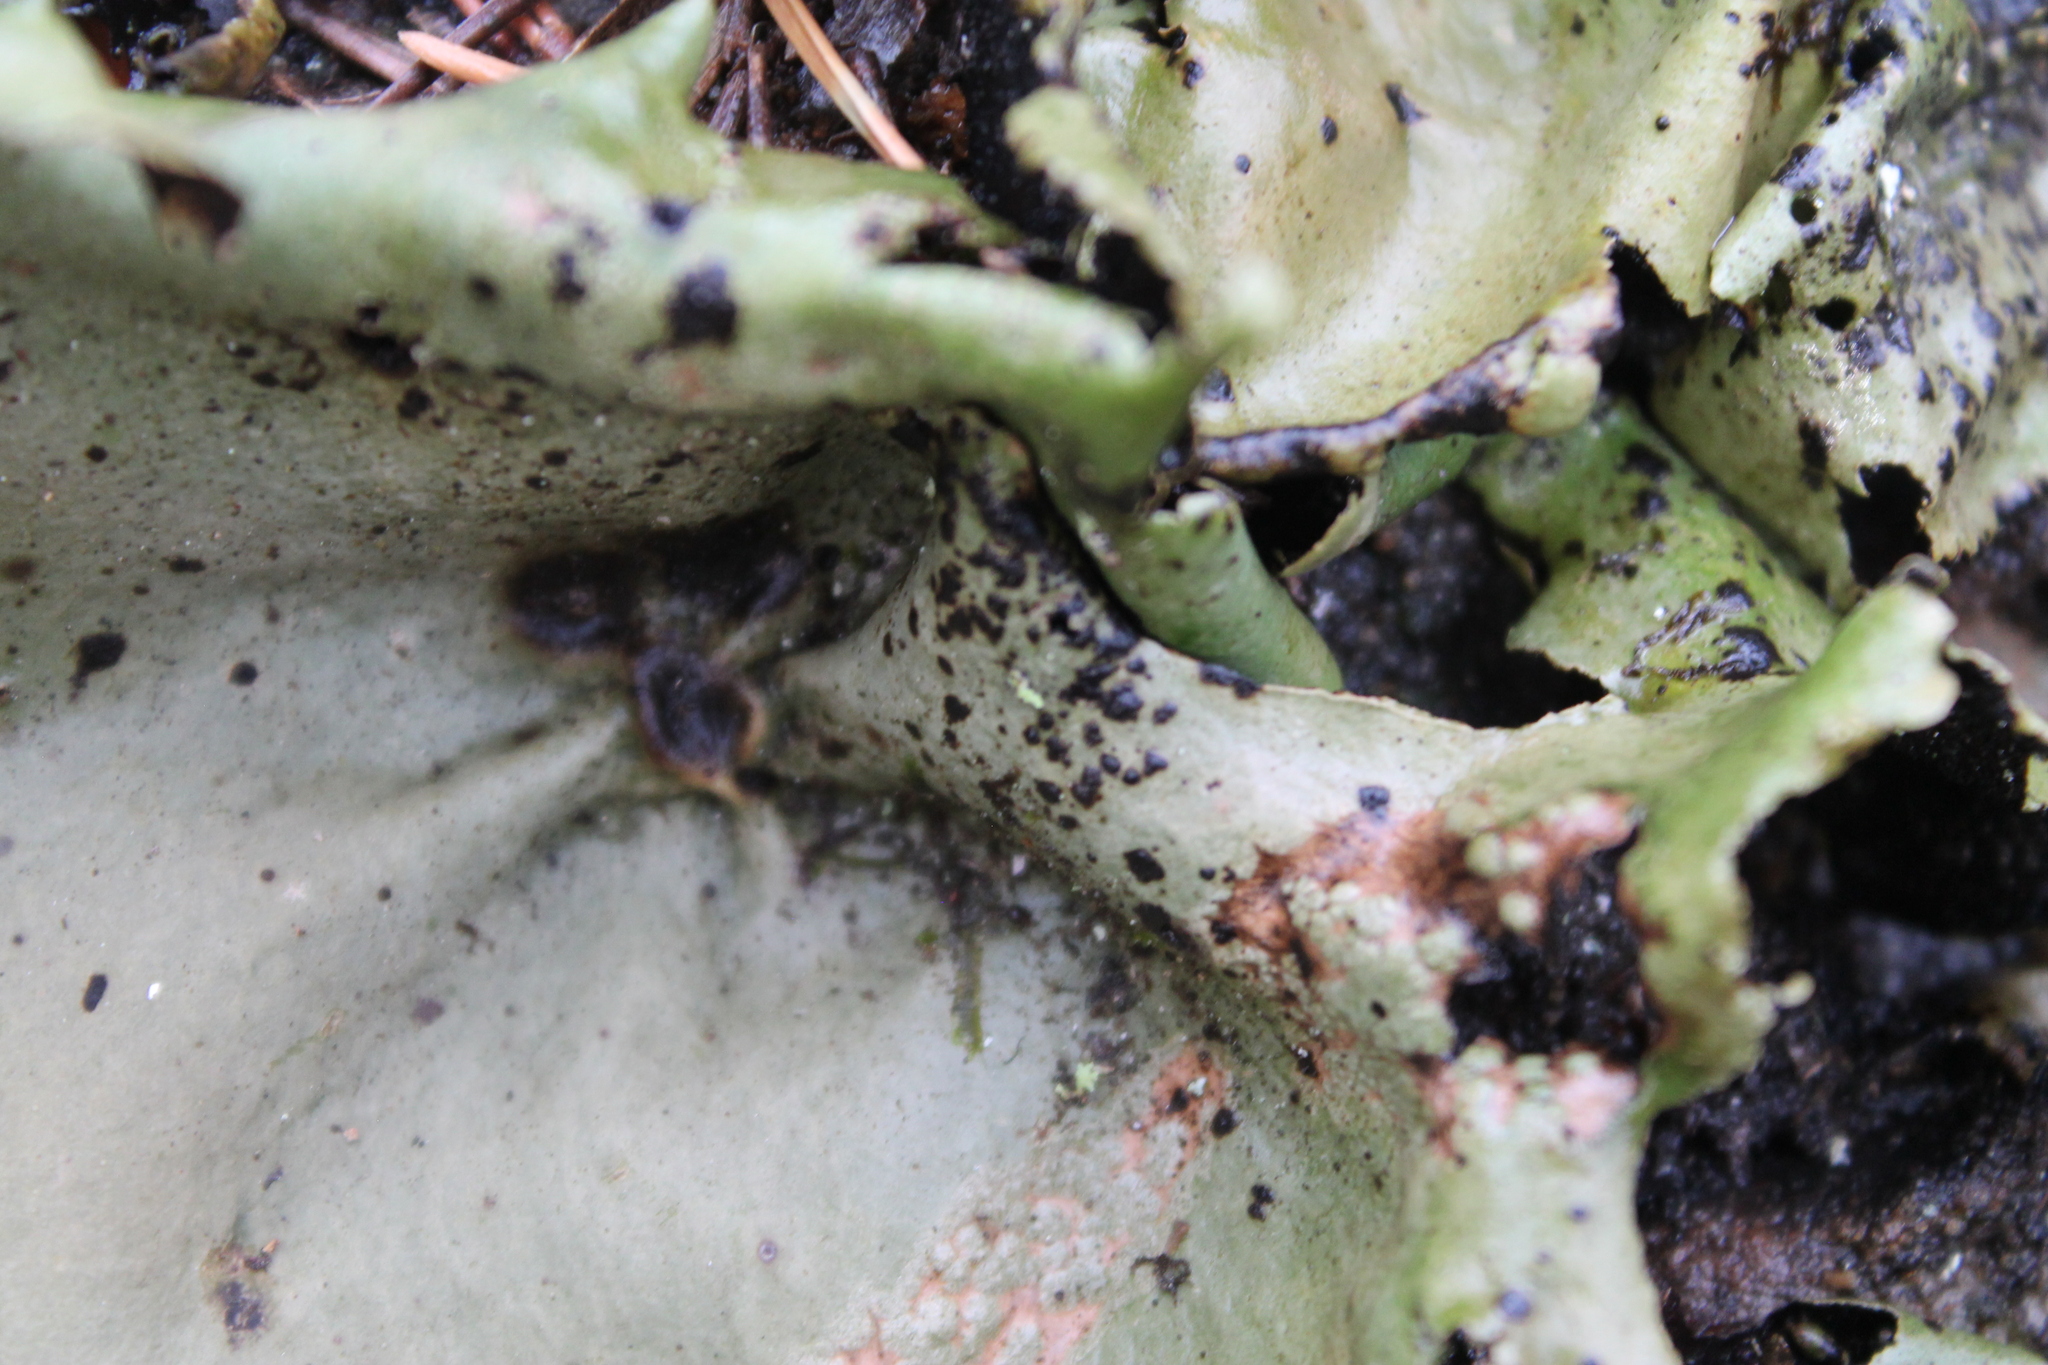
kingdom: Fungi
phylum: Ascomycota
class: Lecanoromycetes
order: Umbilicariales
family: Umbilicariaceae
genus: Umbilicaria
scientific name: Umbilicaria mammulata
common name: Smooth rock tripe
